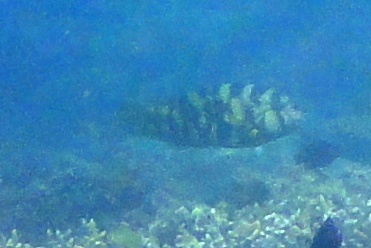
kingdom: Animalia
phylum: Chordata
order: Perciformes
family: Labridae
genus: Choerodon
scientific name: Choerodon graphicus
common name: Graphic tuskfish
